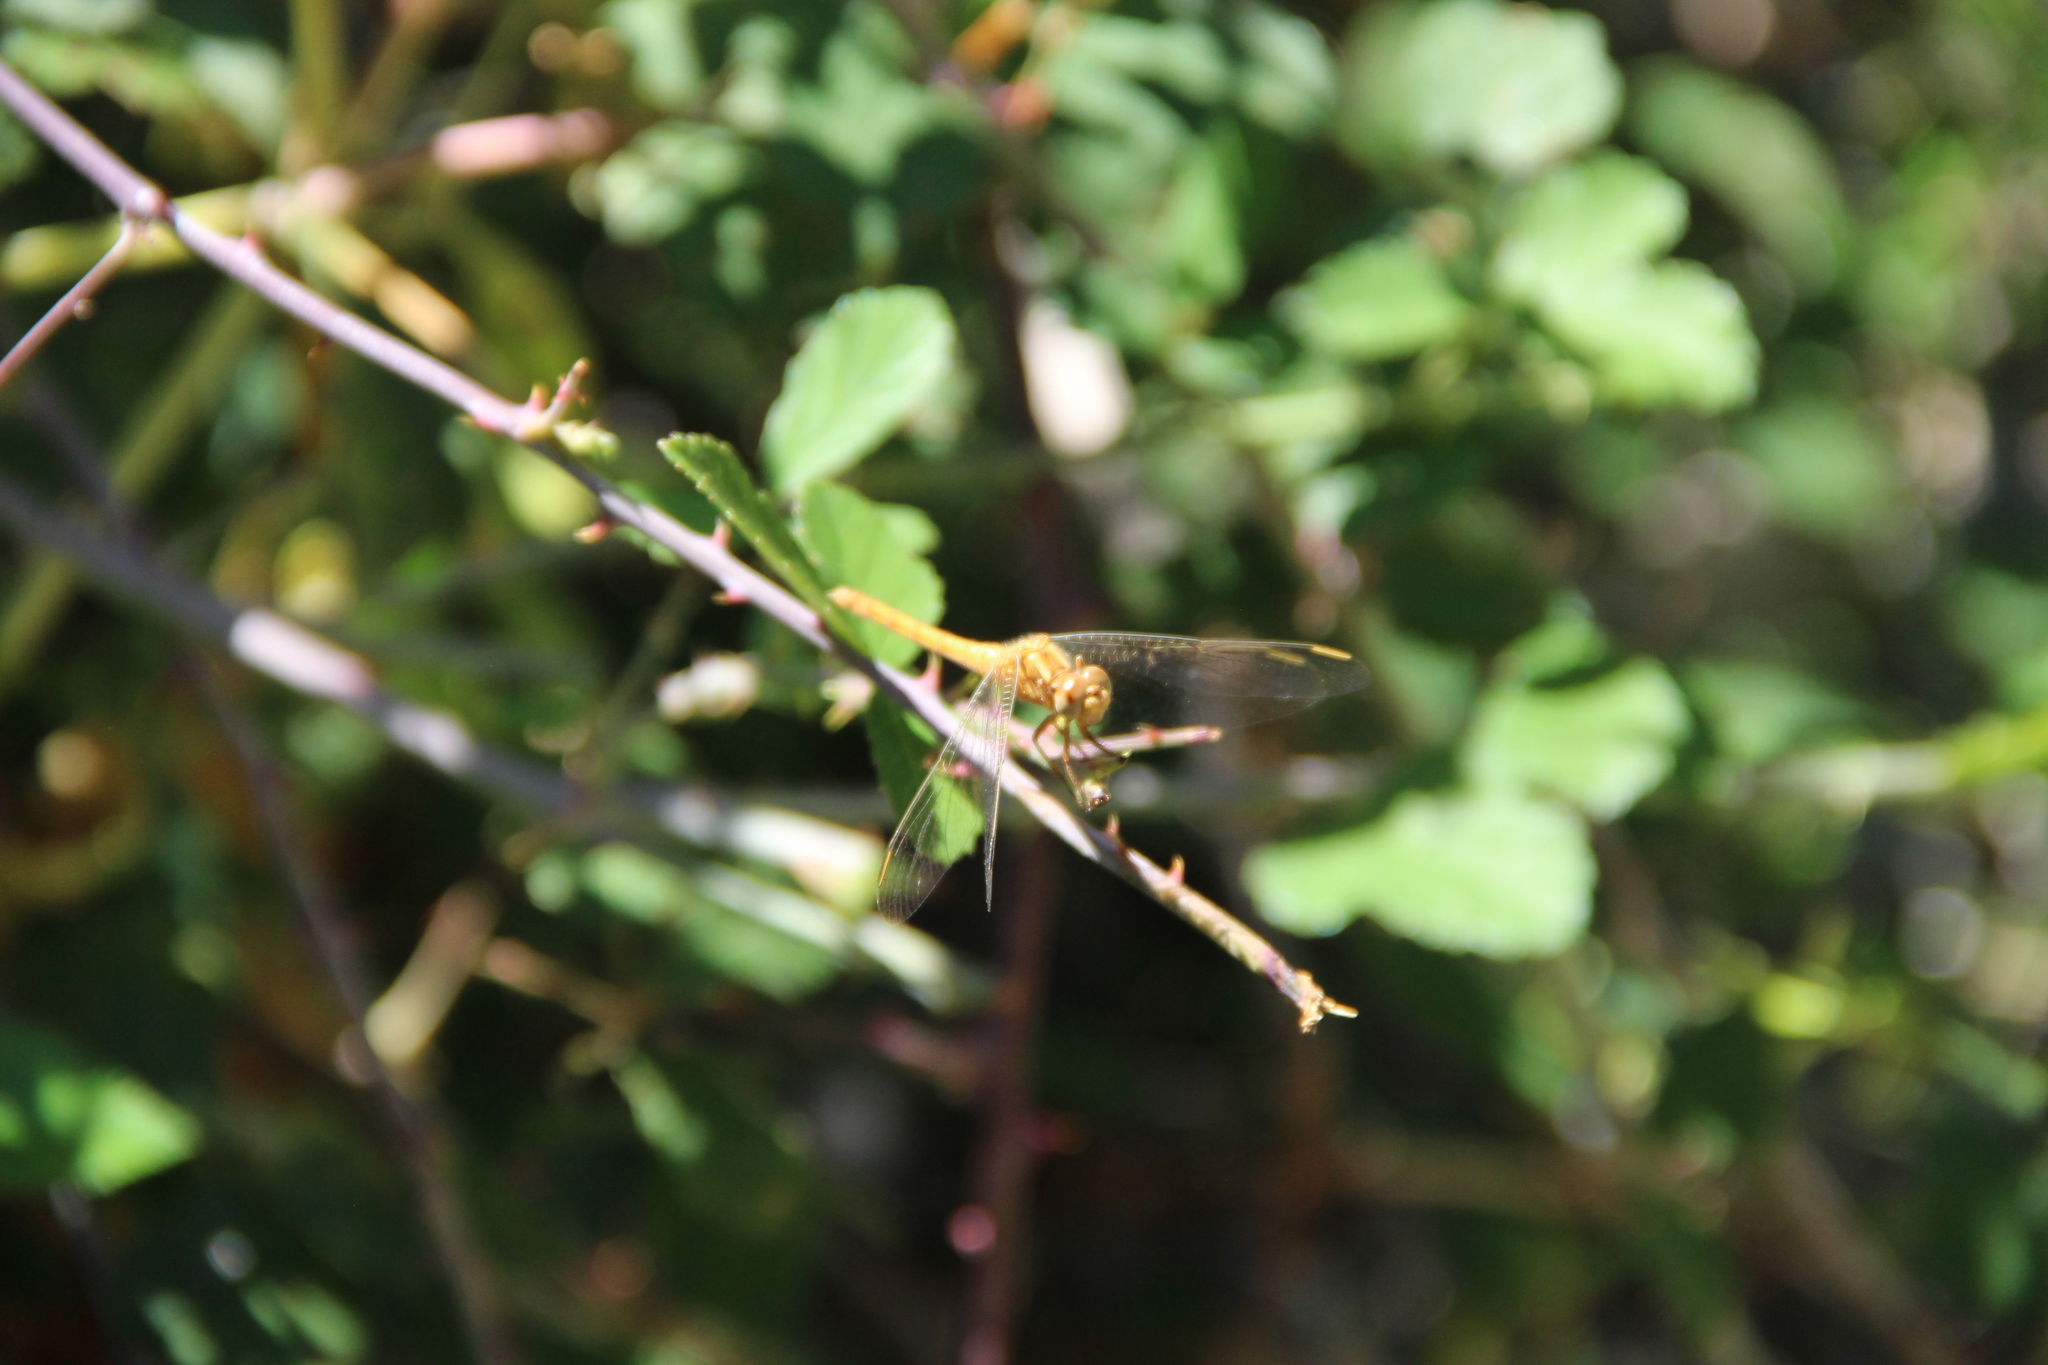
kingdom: Animalia
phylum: Arthropoda
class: Insecta
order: Odonata
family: Libellulidae
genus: Orthetrum
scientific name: Orthetrum coerulescens
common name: Keeled skimmer
